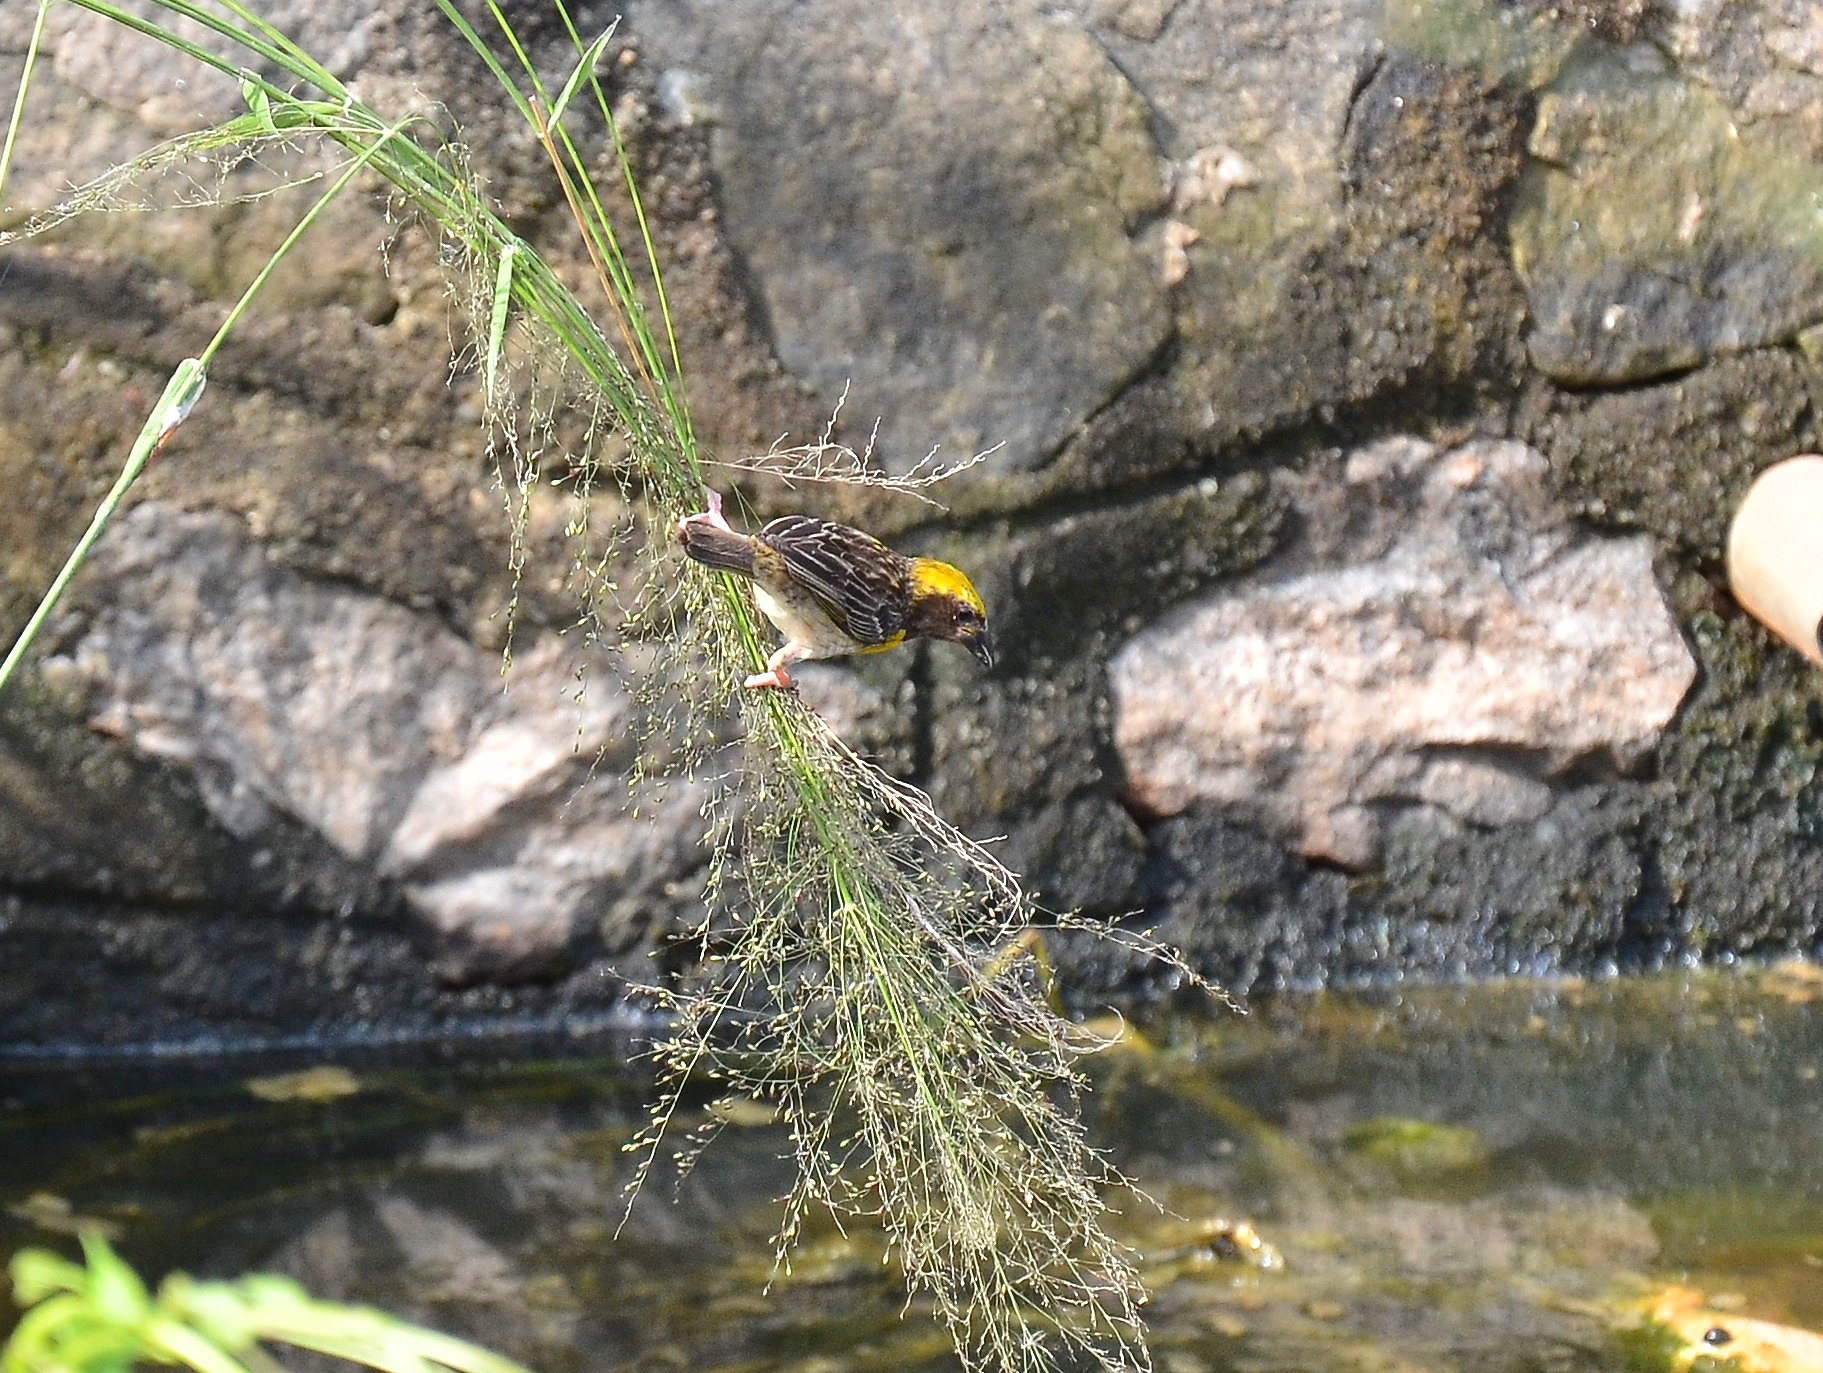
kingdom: Animalia
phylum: Chordata
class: Aves
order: Passeriformes
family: Ploceidae
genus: Ploceus
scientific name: Ploceus philippinus
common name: Baya weaver
